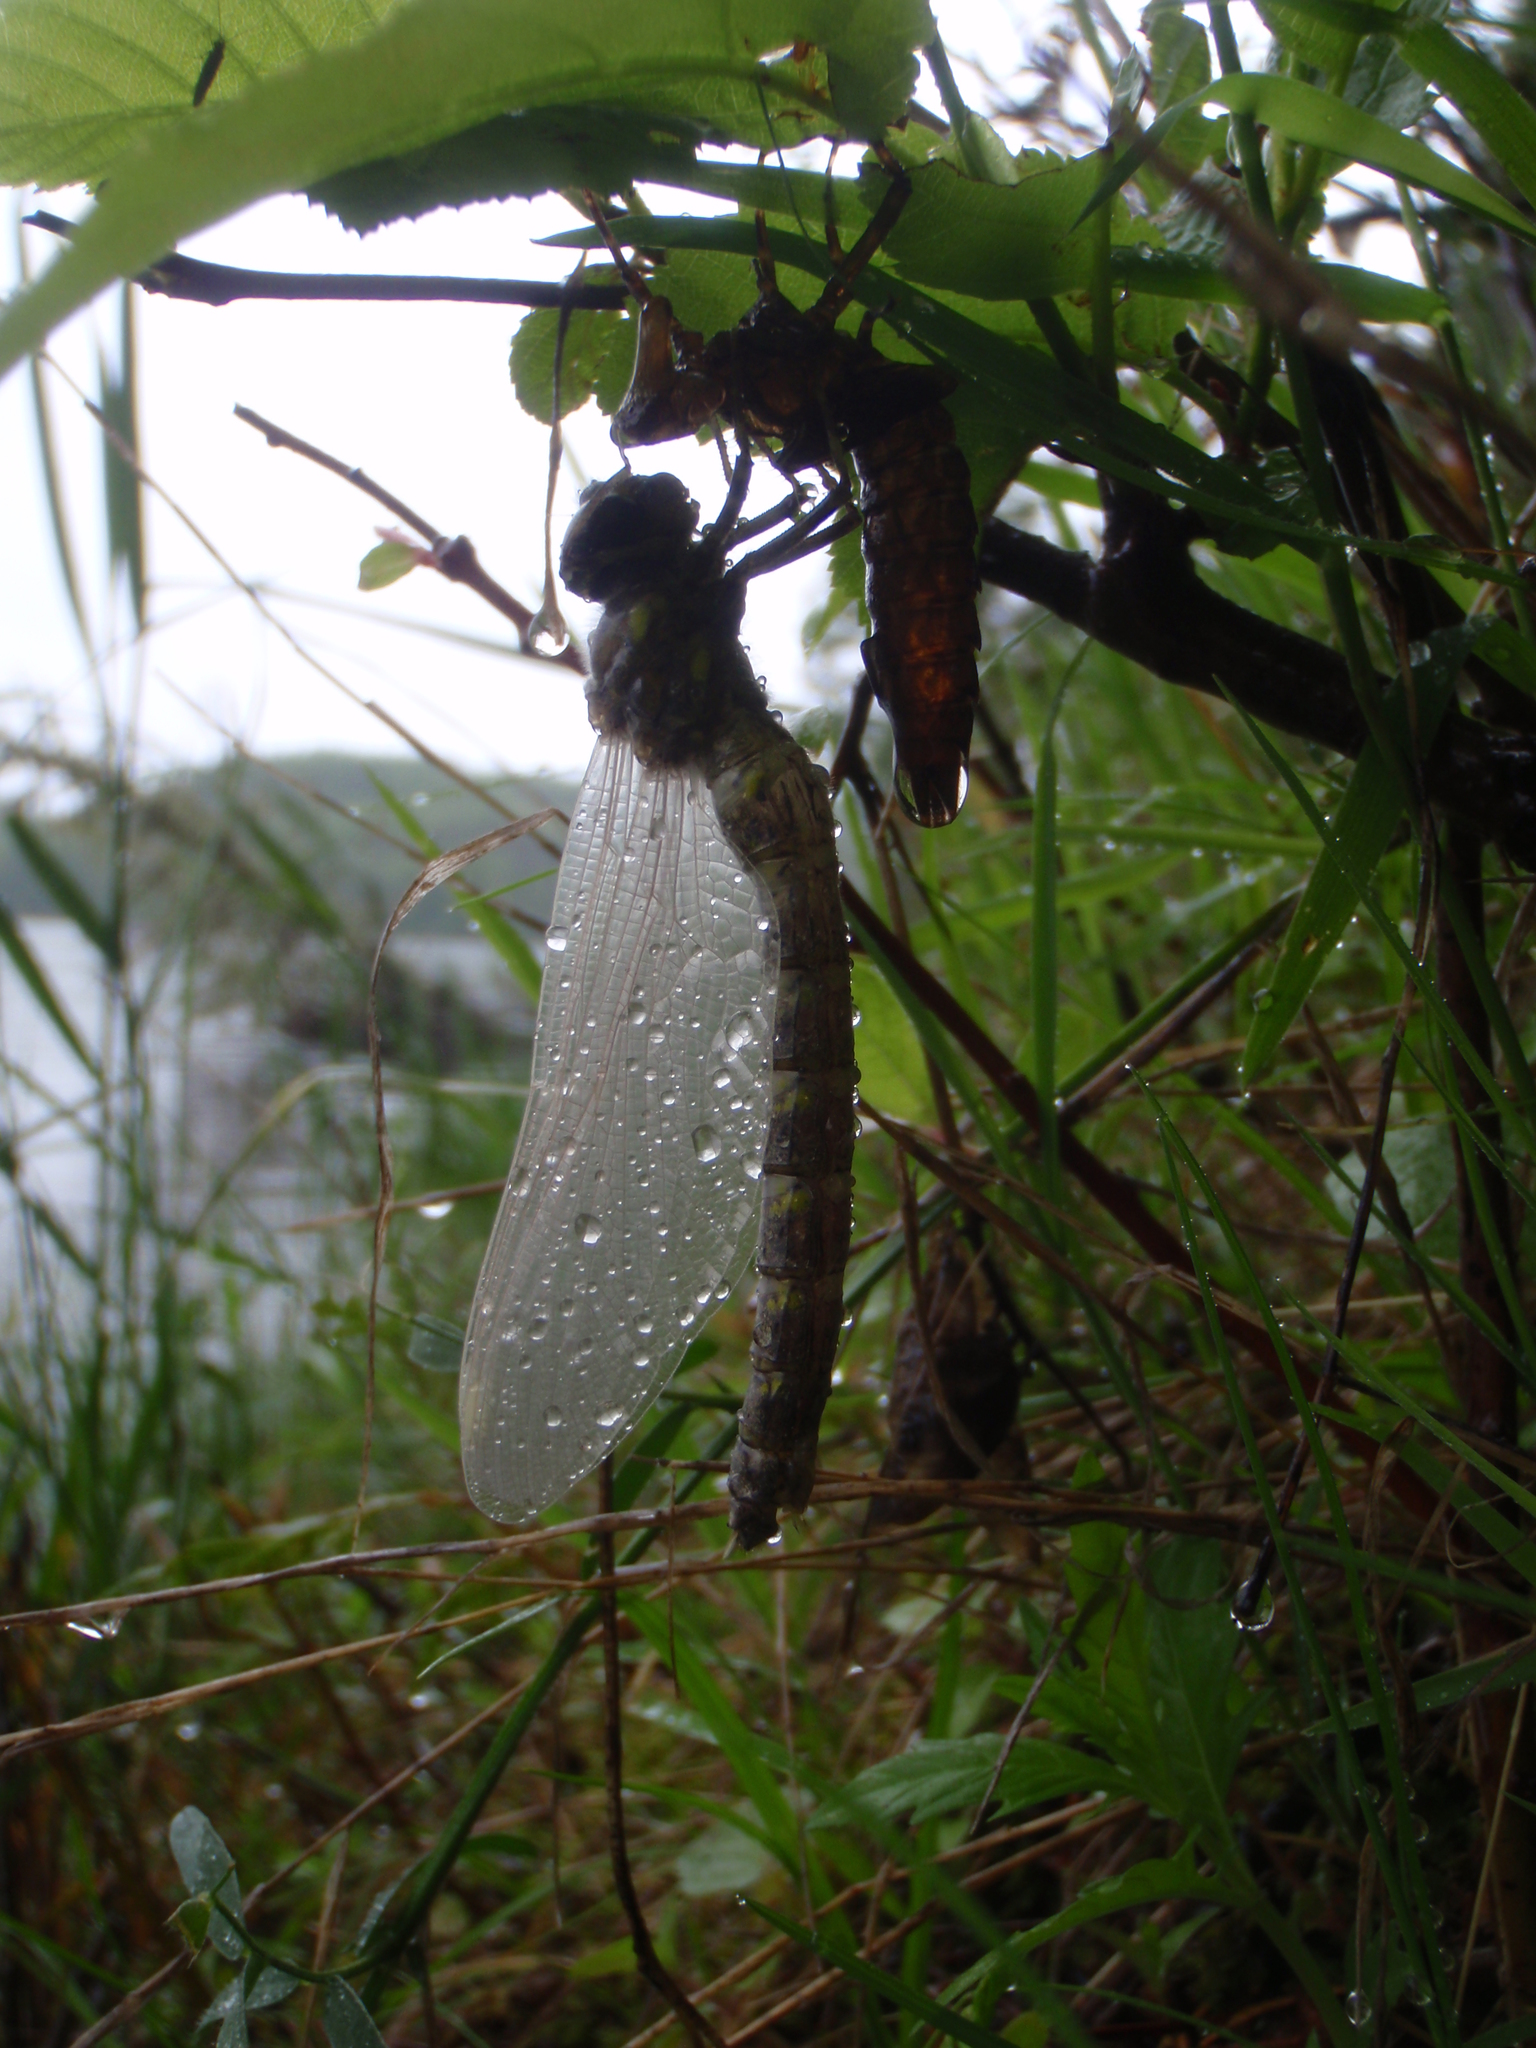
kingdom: Animalia
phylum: Arthropoda
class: Insecta
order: Odonata
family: Aeshnidae
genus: Boyeria
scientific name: Boyeria grafiana
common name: Ocellated darner
